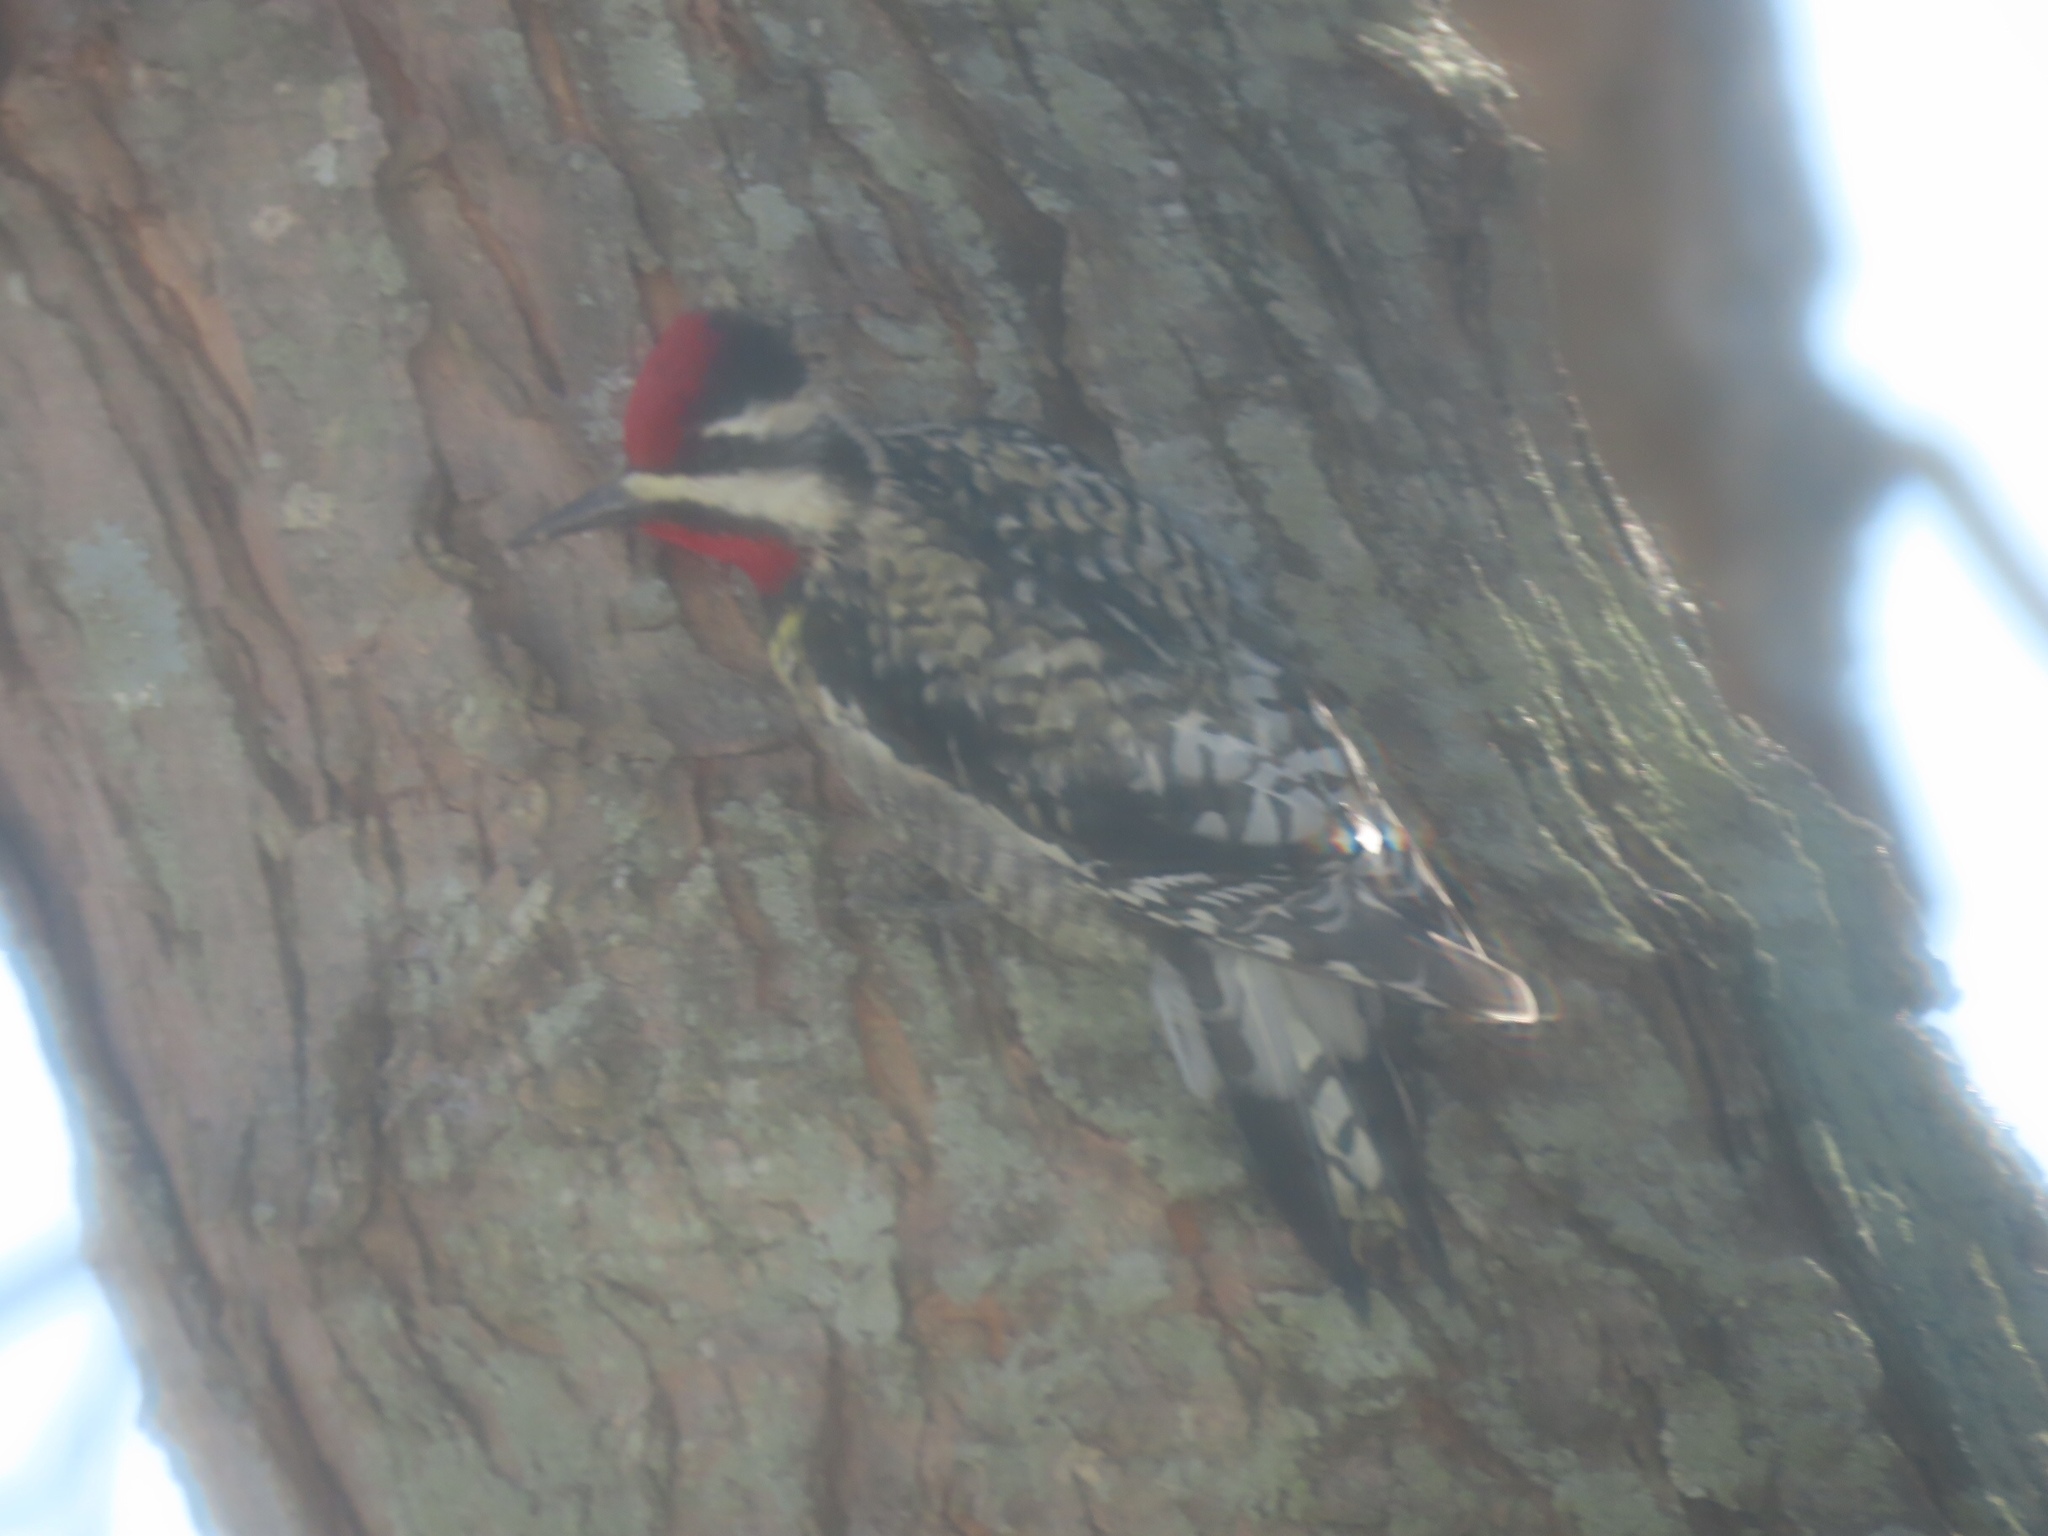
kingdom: Animalia
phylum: Chordata
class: Aves
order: Piciformes
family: Picidae
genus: Sphyrapicus
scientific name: Sphyrapicus varius
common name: Yellow-bellied sapsucker
